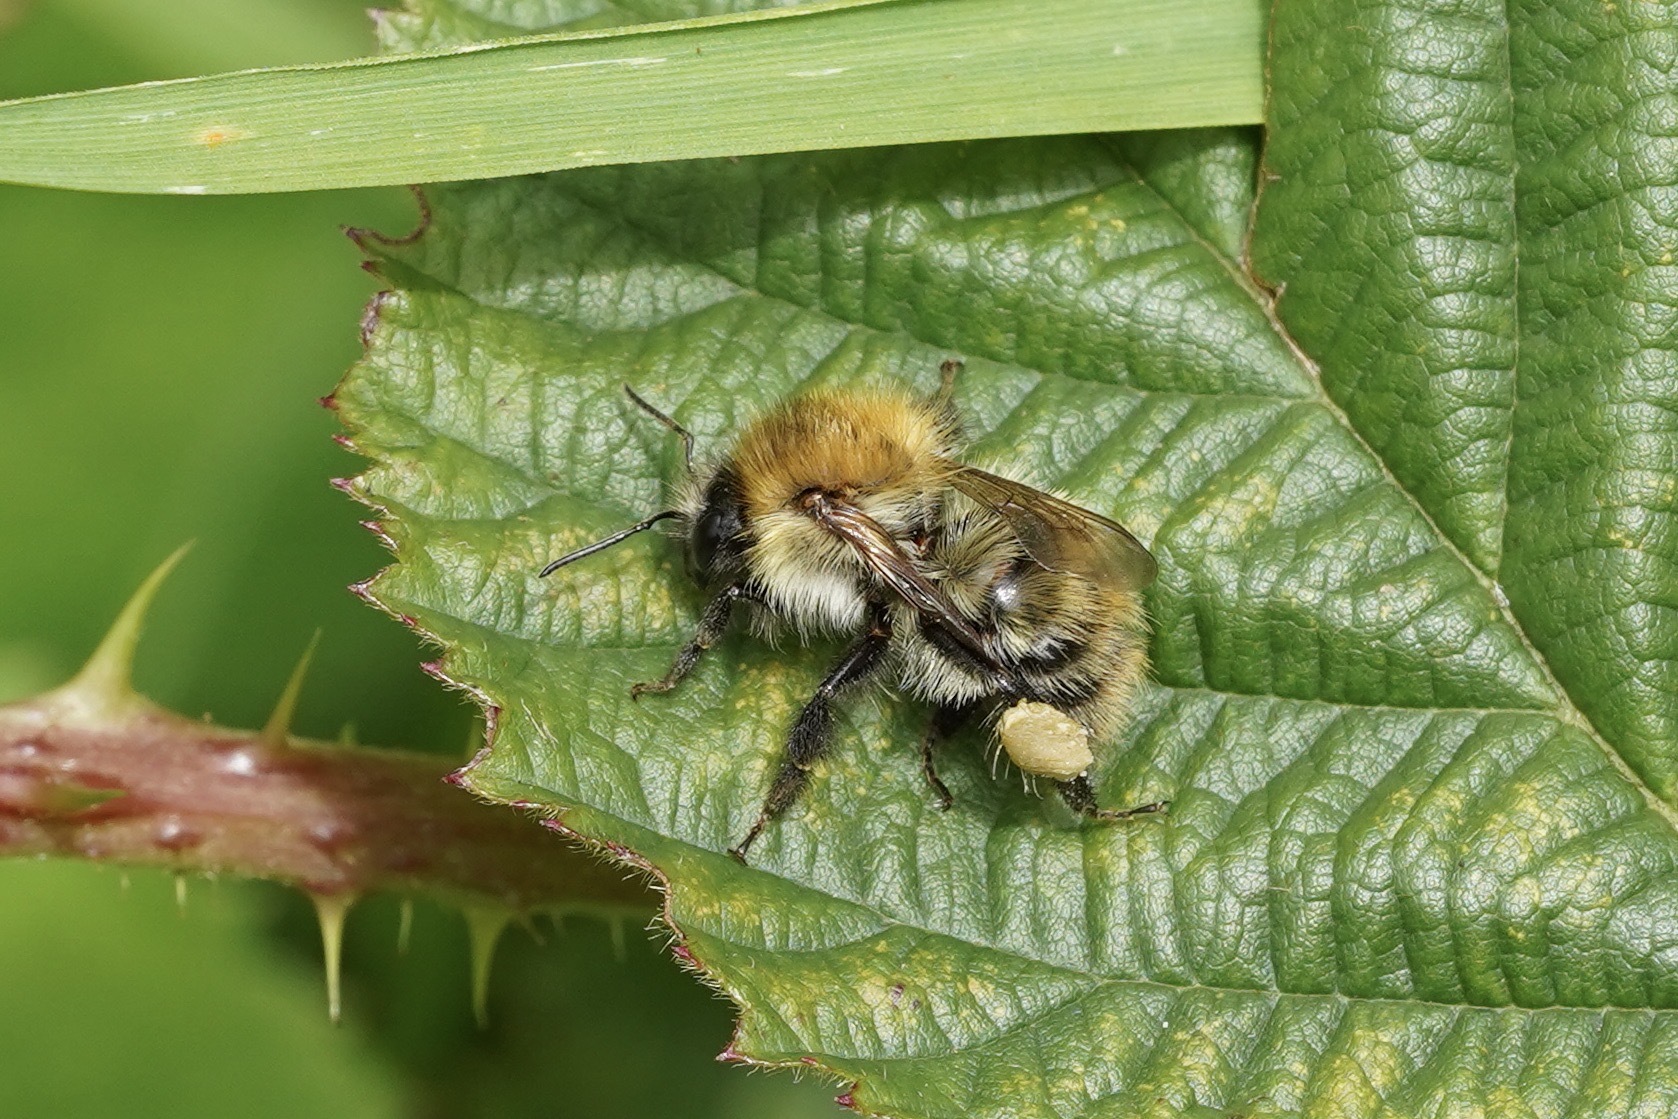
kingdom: Animalia
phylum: Arthropoda
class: Insecta
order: Hymenoptera
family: Apidae
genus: Bombus
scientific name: Bombus pascuorum
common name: Common carder bee
